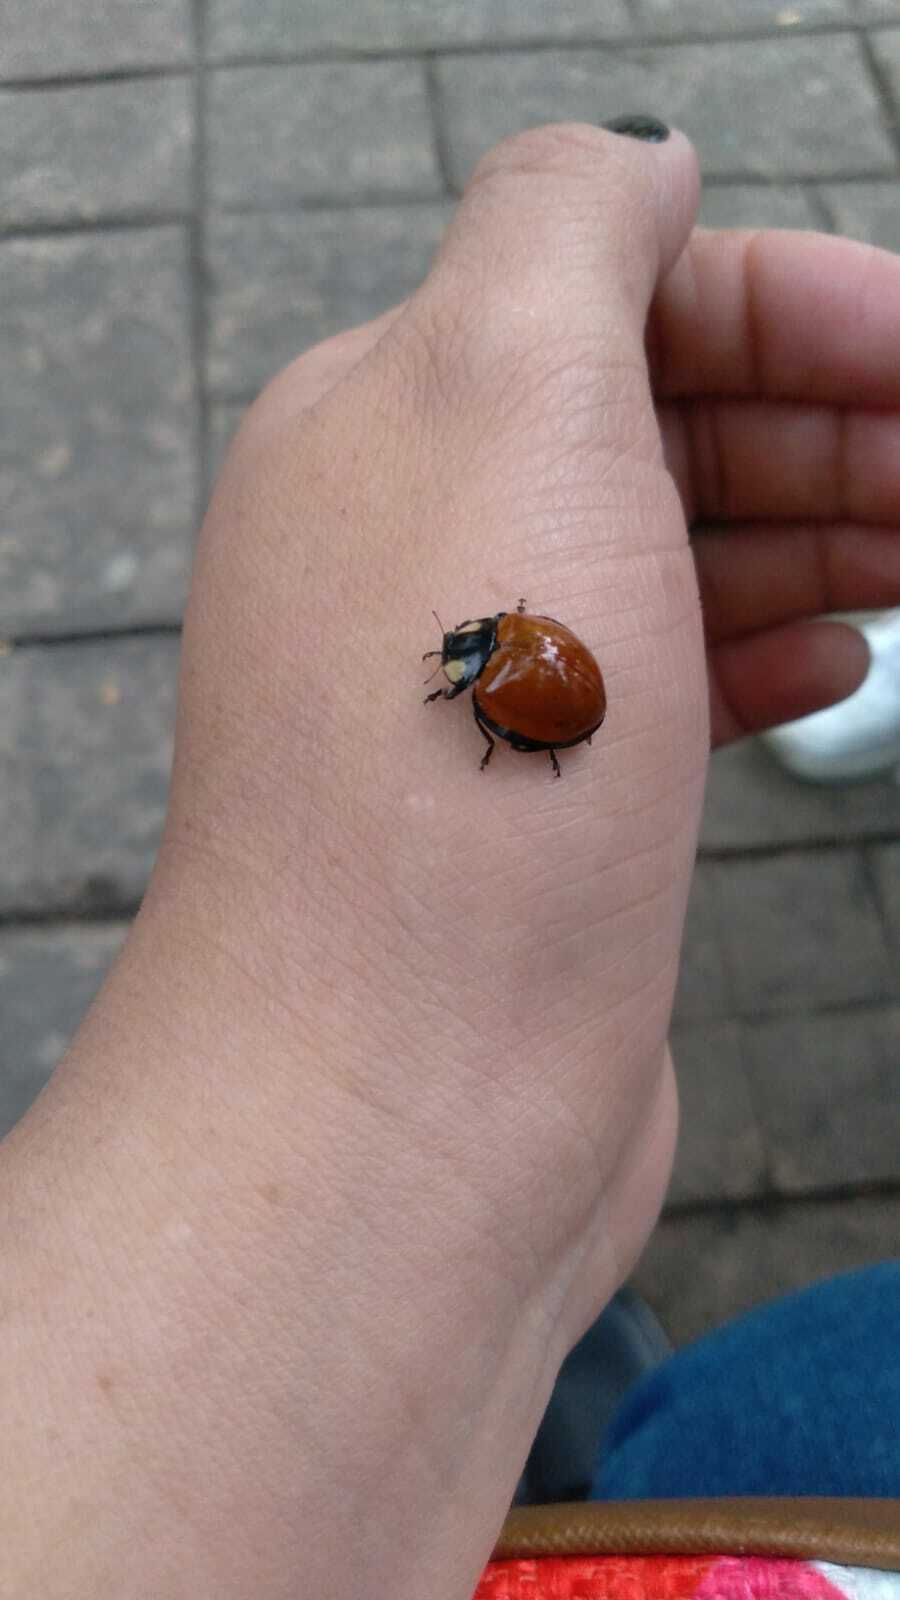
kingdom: Animalia
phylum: Arthropoda
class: Insecta
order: Coleoptera
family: Coccinellidae
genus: Anatis
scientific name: Anatis
